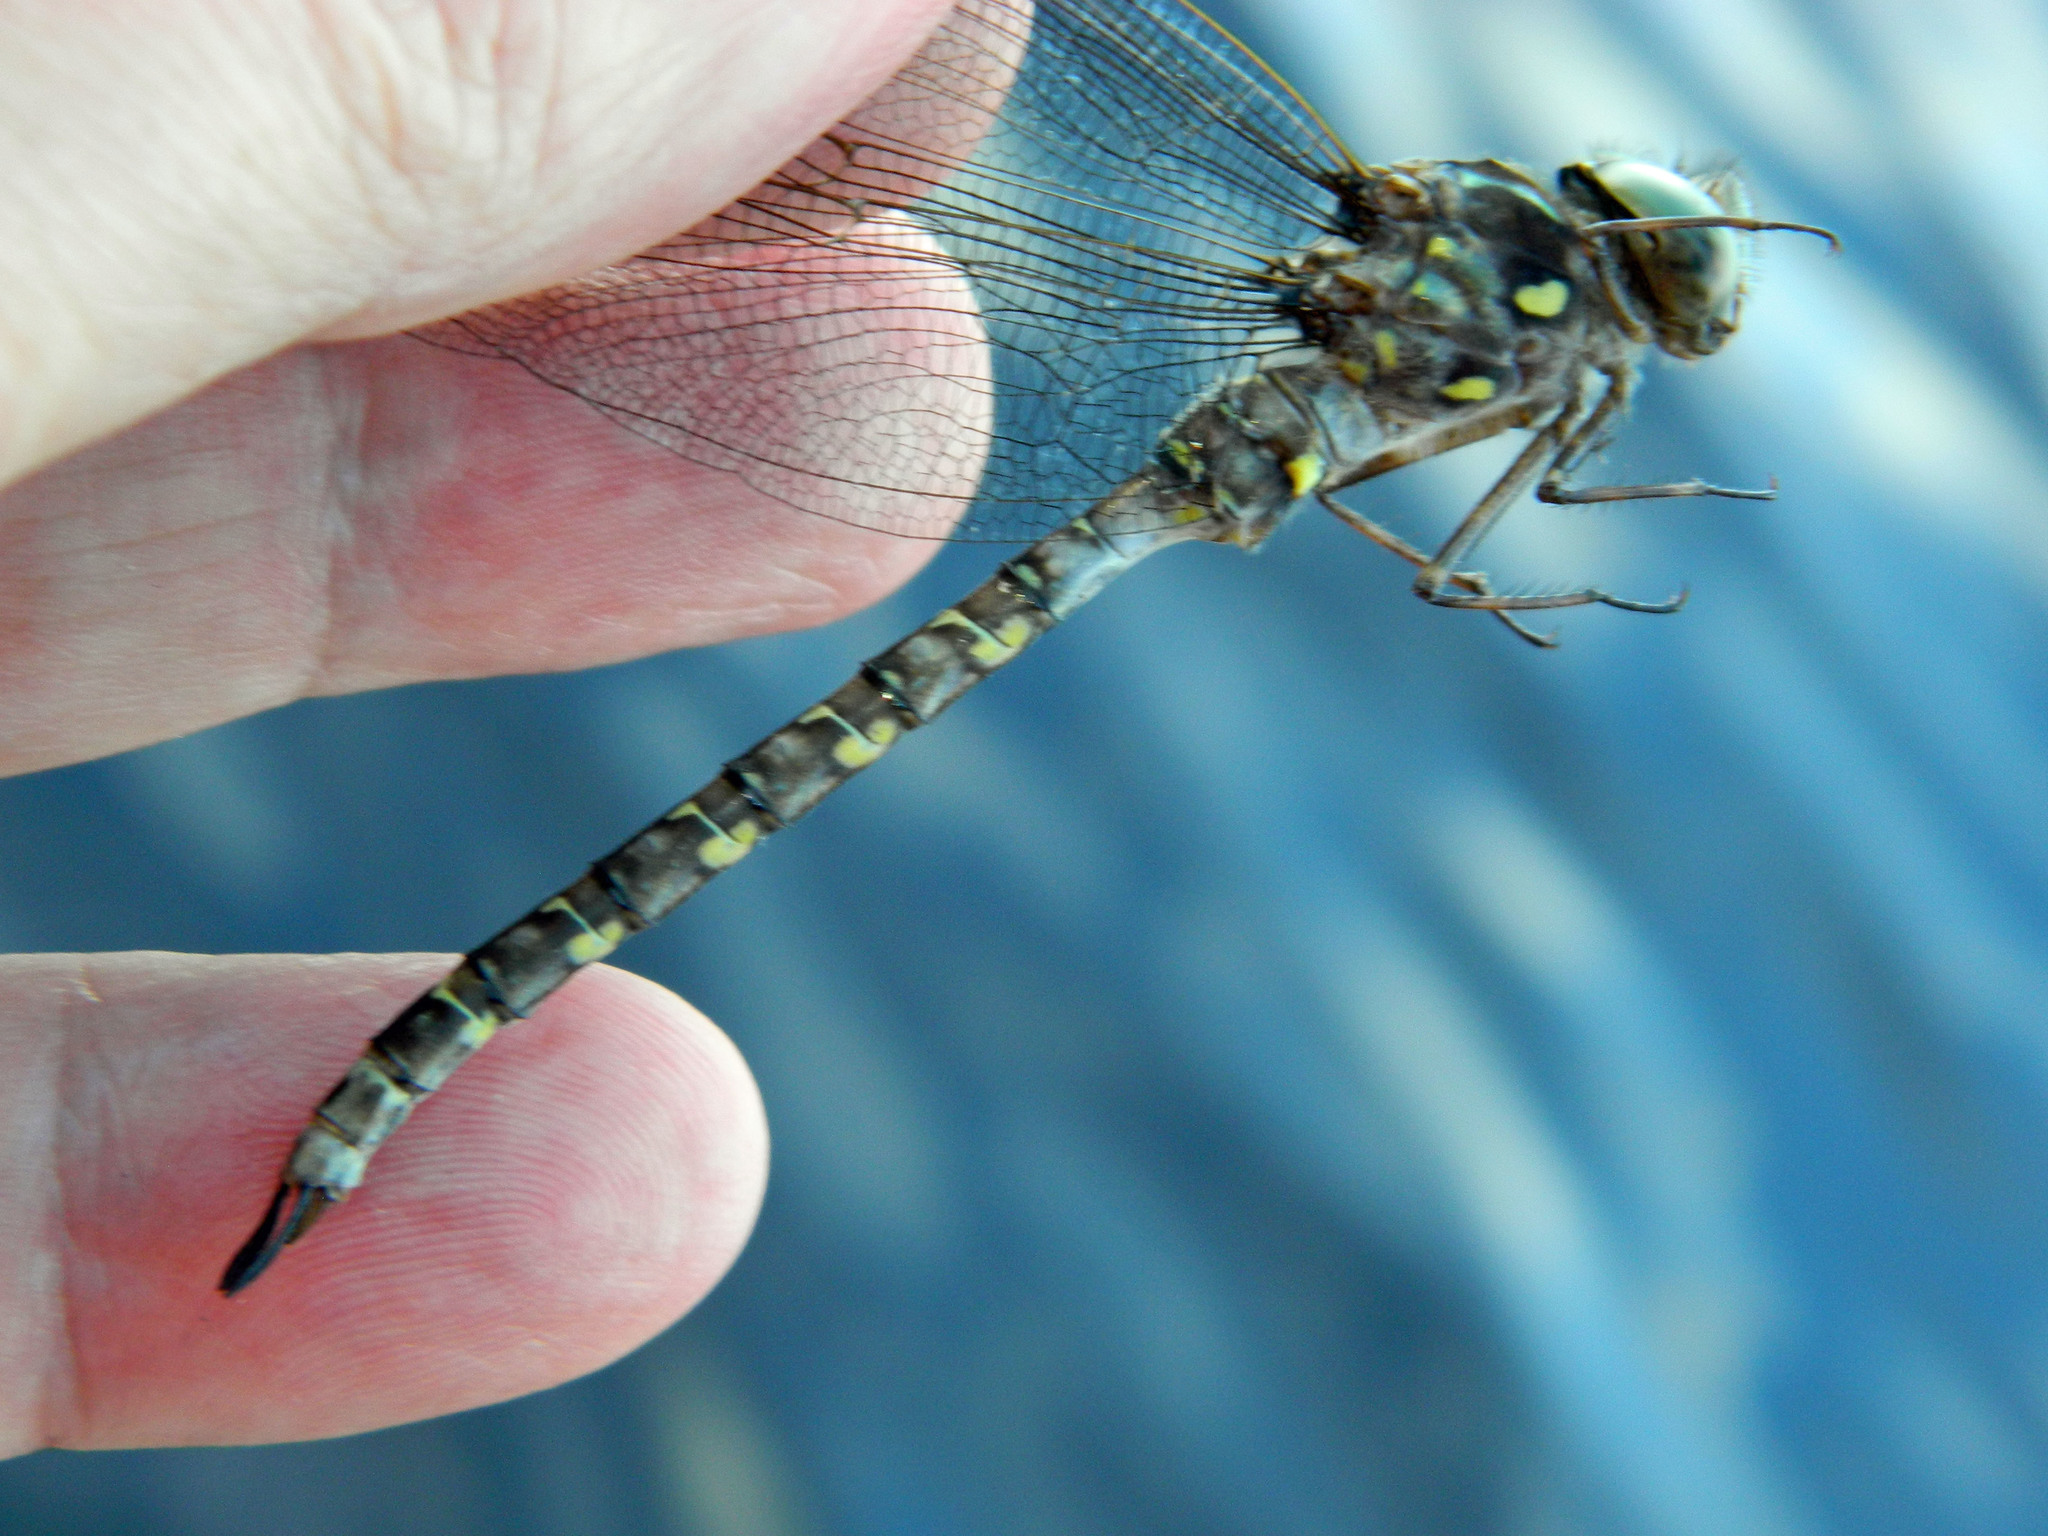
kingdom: Animalia
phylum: Arthropoda
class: Insecta
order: Odonata
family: Aeshnidae
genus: Boyeria
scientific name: Boyeria grafiana
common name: Ocellated darner
